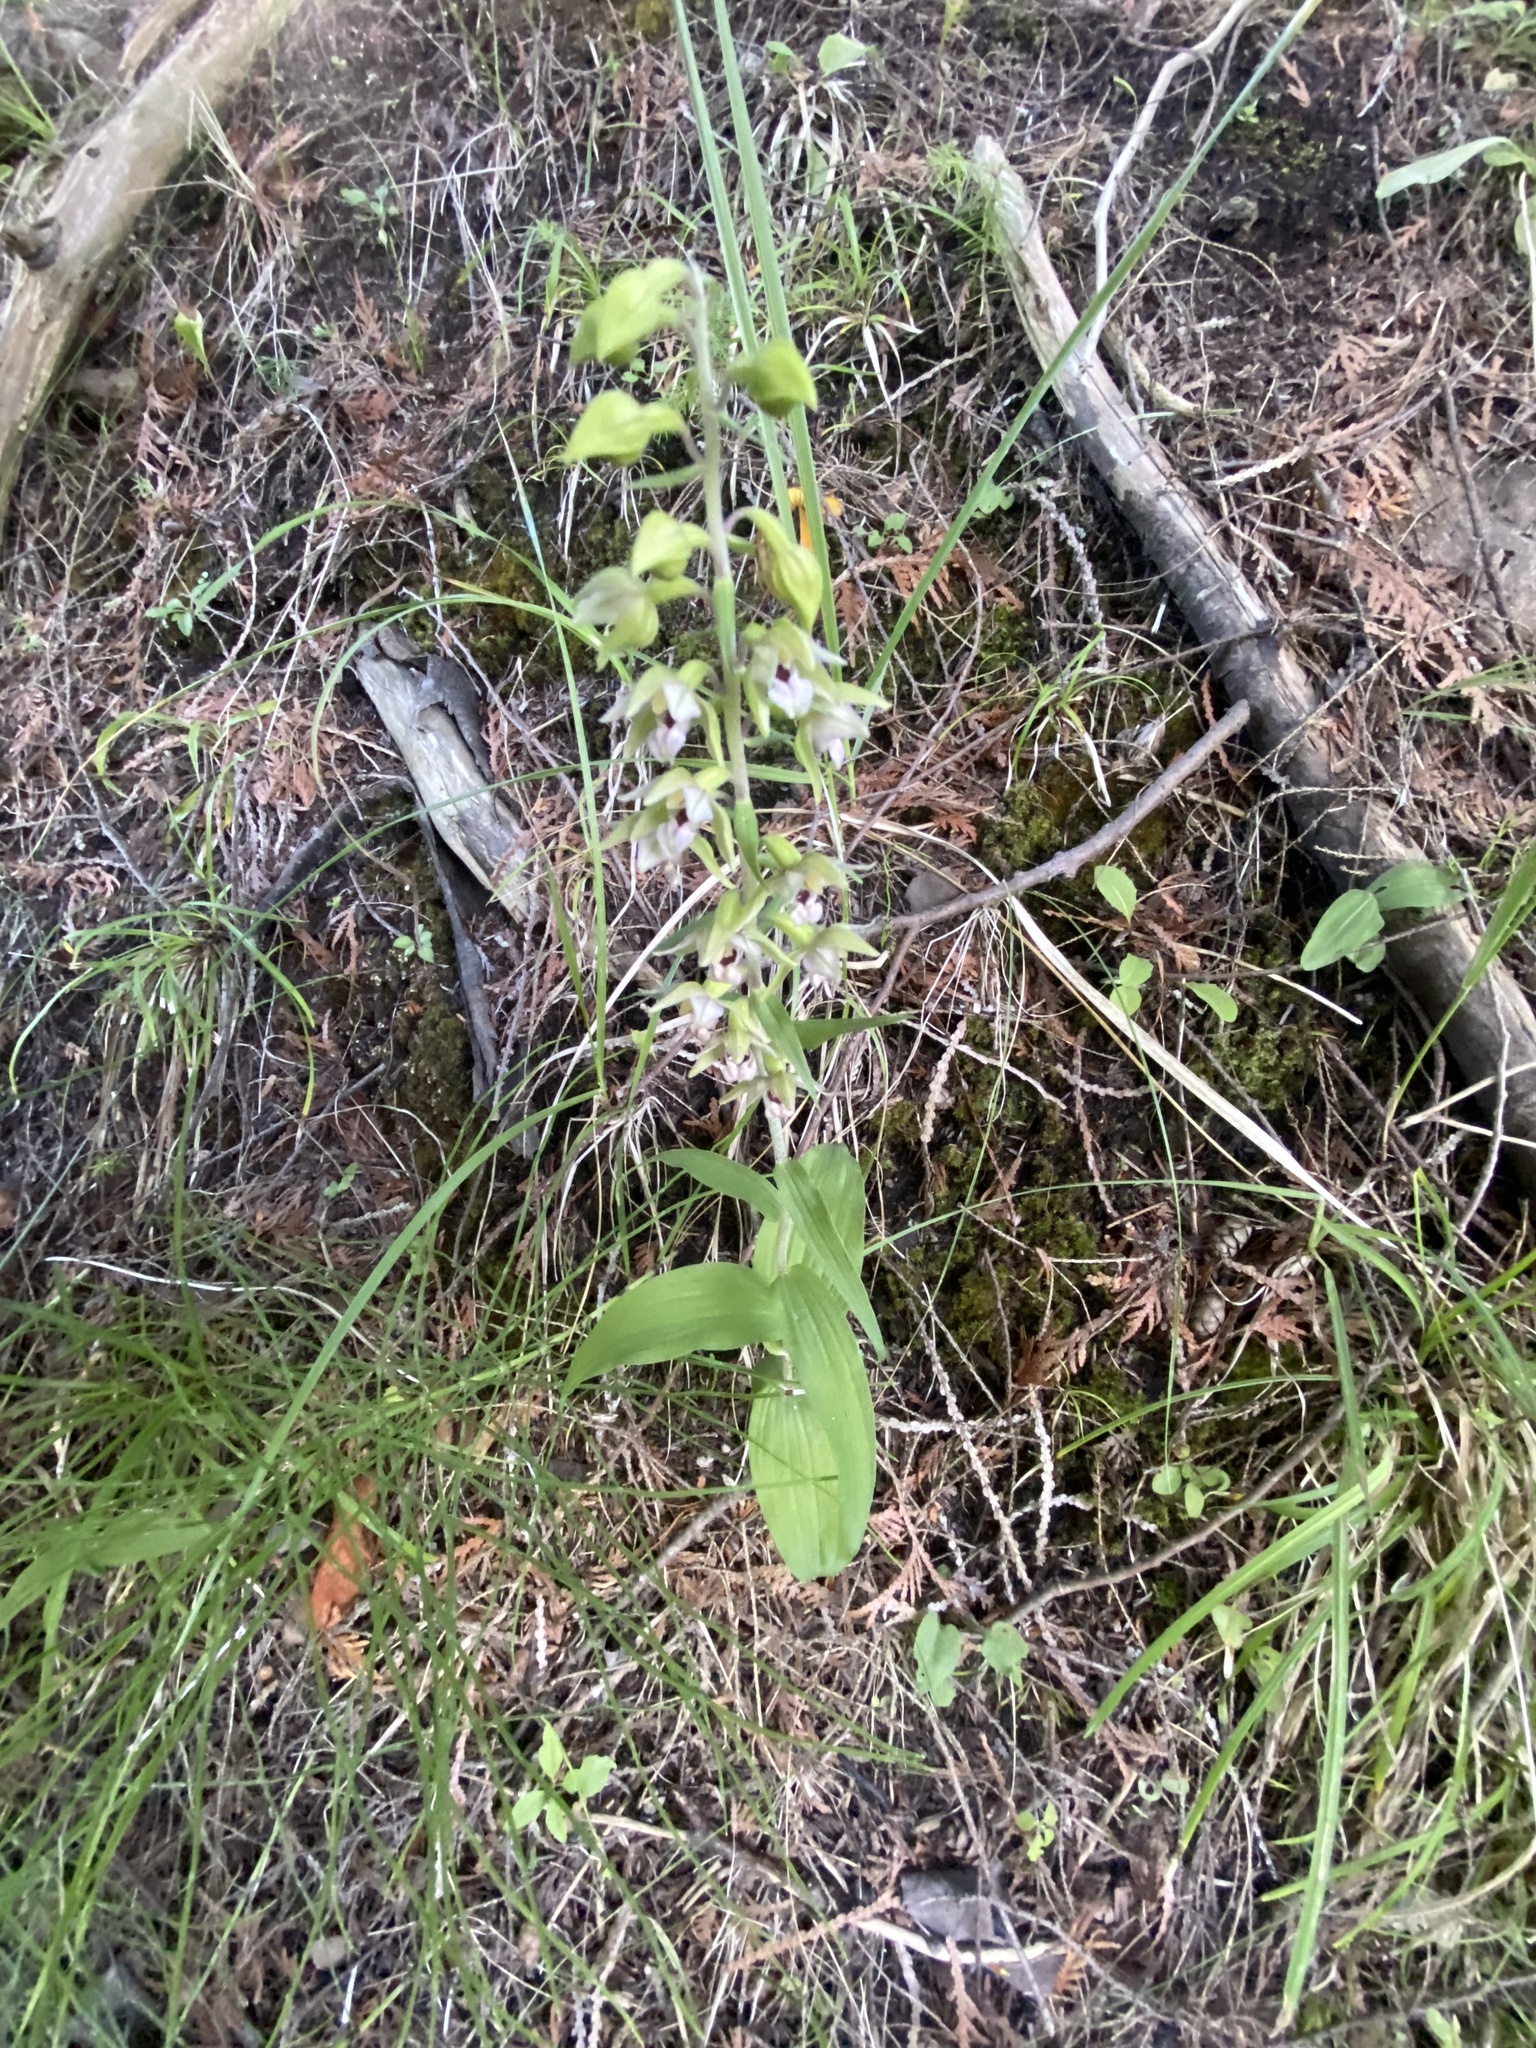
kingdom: Plantae
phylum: Tracheophyta
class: Liliopsida
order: Asparagales
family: Orchidaceae
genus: Epipactis
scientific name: Epipactis helleborine
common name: Broad-leaved helleborine
